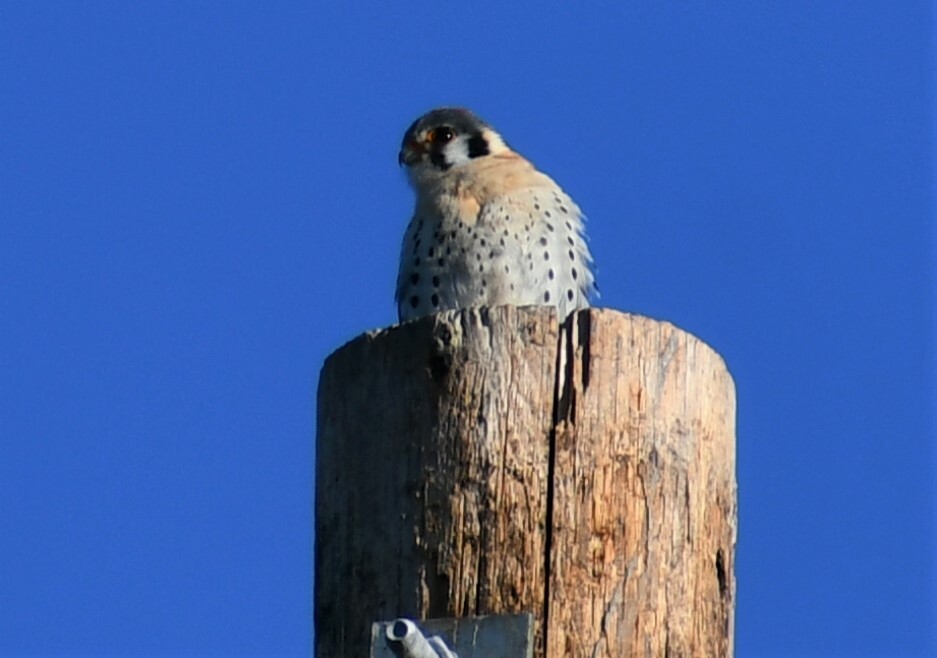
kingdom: Animalia
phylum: Chordata
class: Aves
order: Falconiformes
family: Falconidae
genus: Falco
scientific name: Falco sparverius
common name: American kestrel
